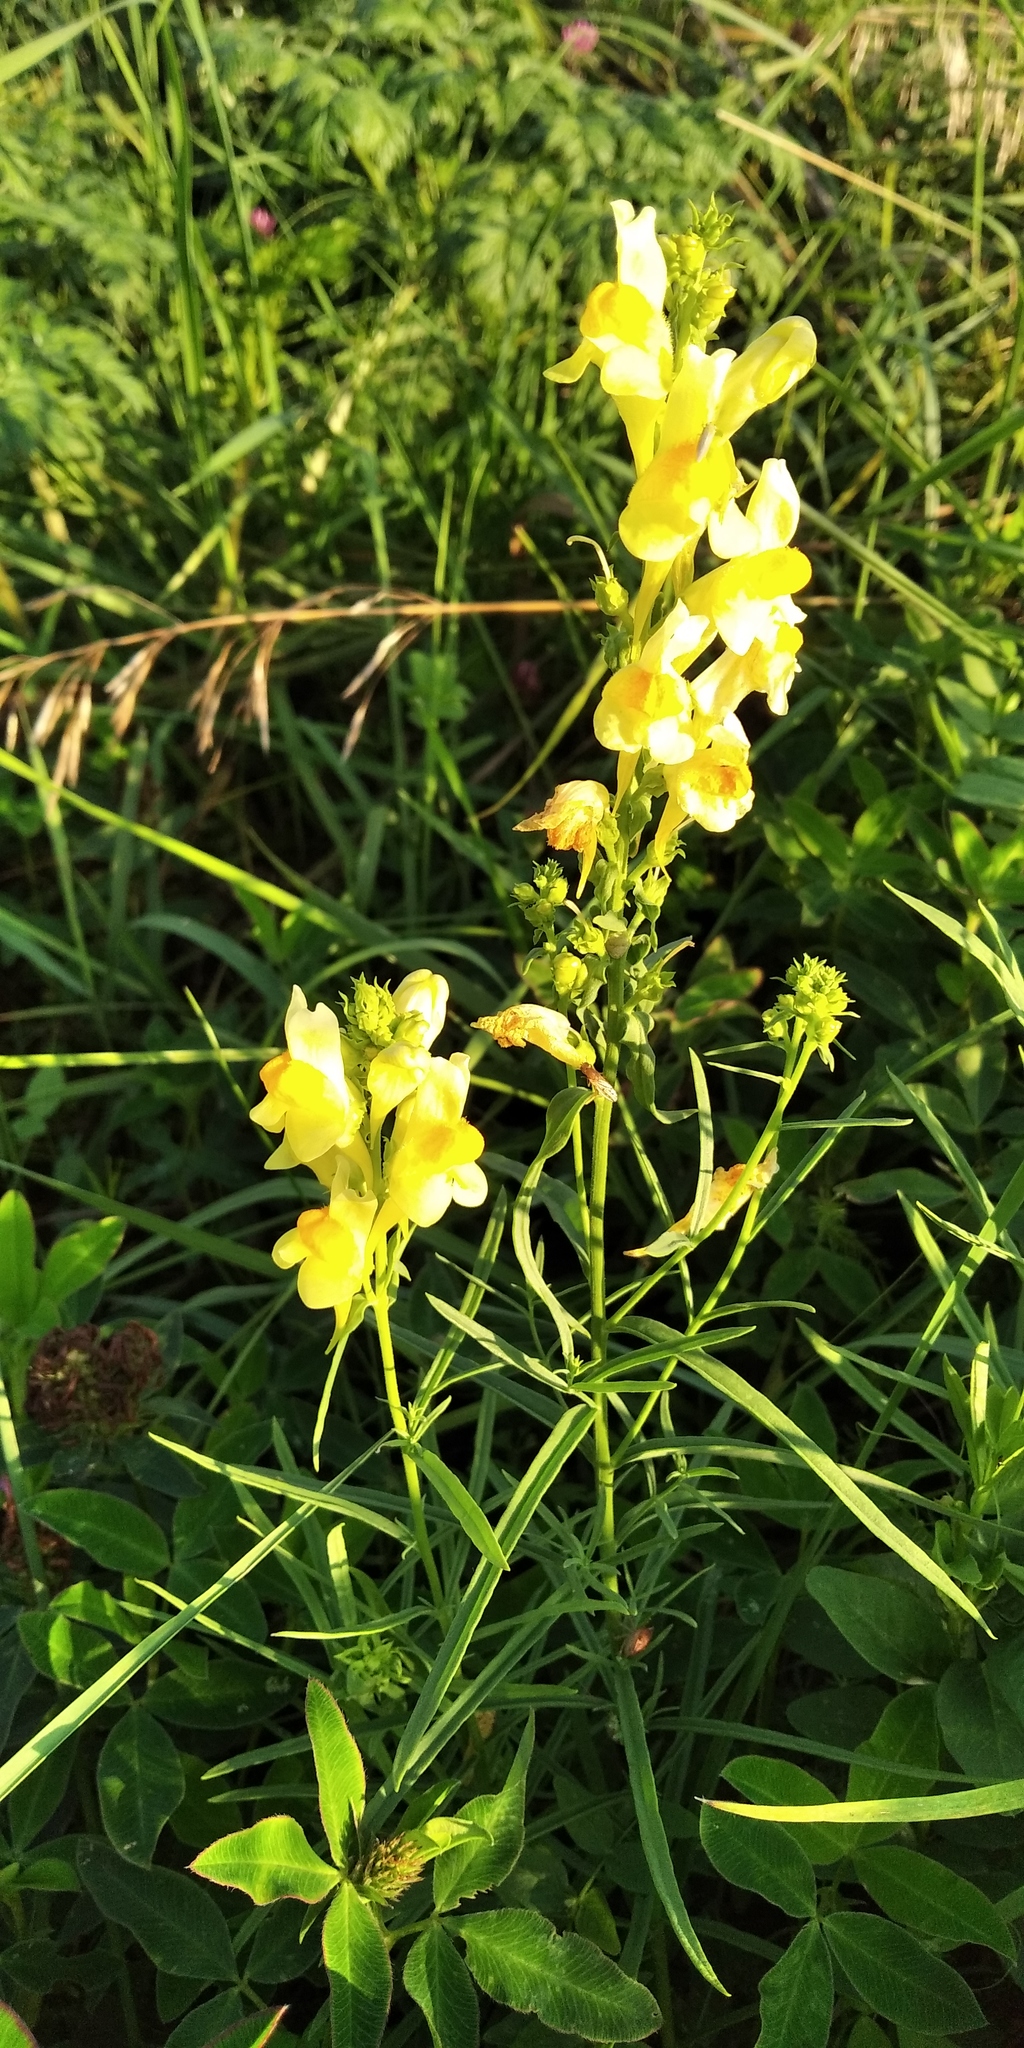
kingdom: Plantae
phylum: Tracheophyta
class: Magnoliopsida
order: Lamiales
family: Plantaginaceae
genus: Linaria
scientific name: Linaria vulgaris
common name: Butter and eggs
